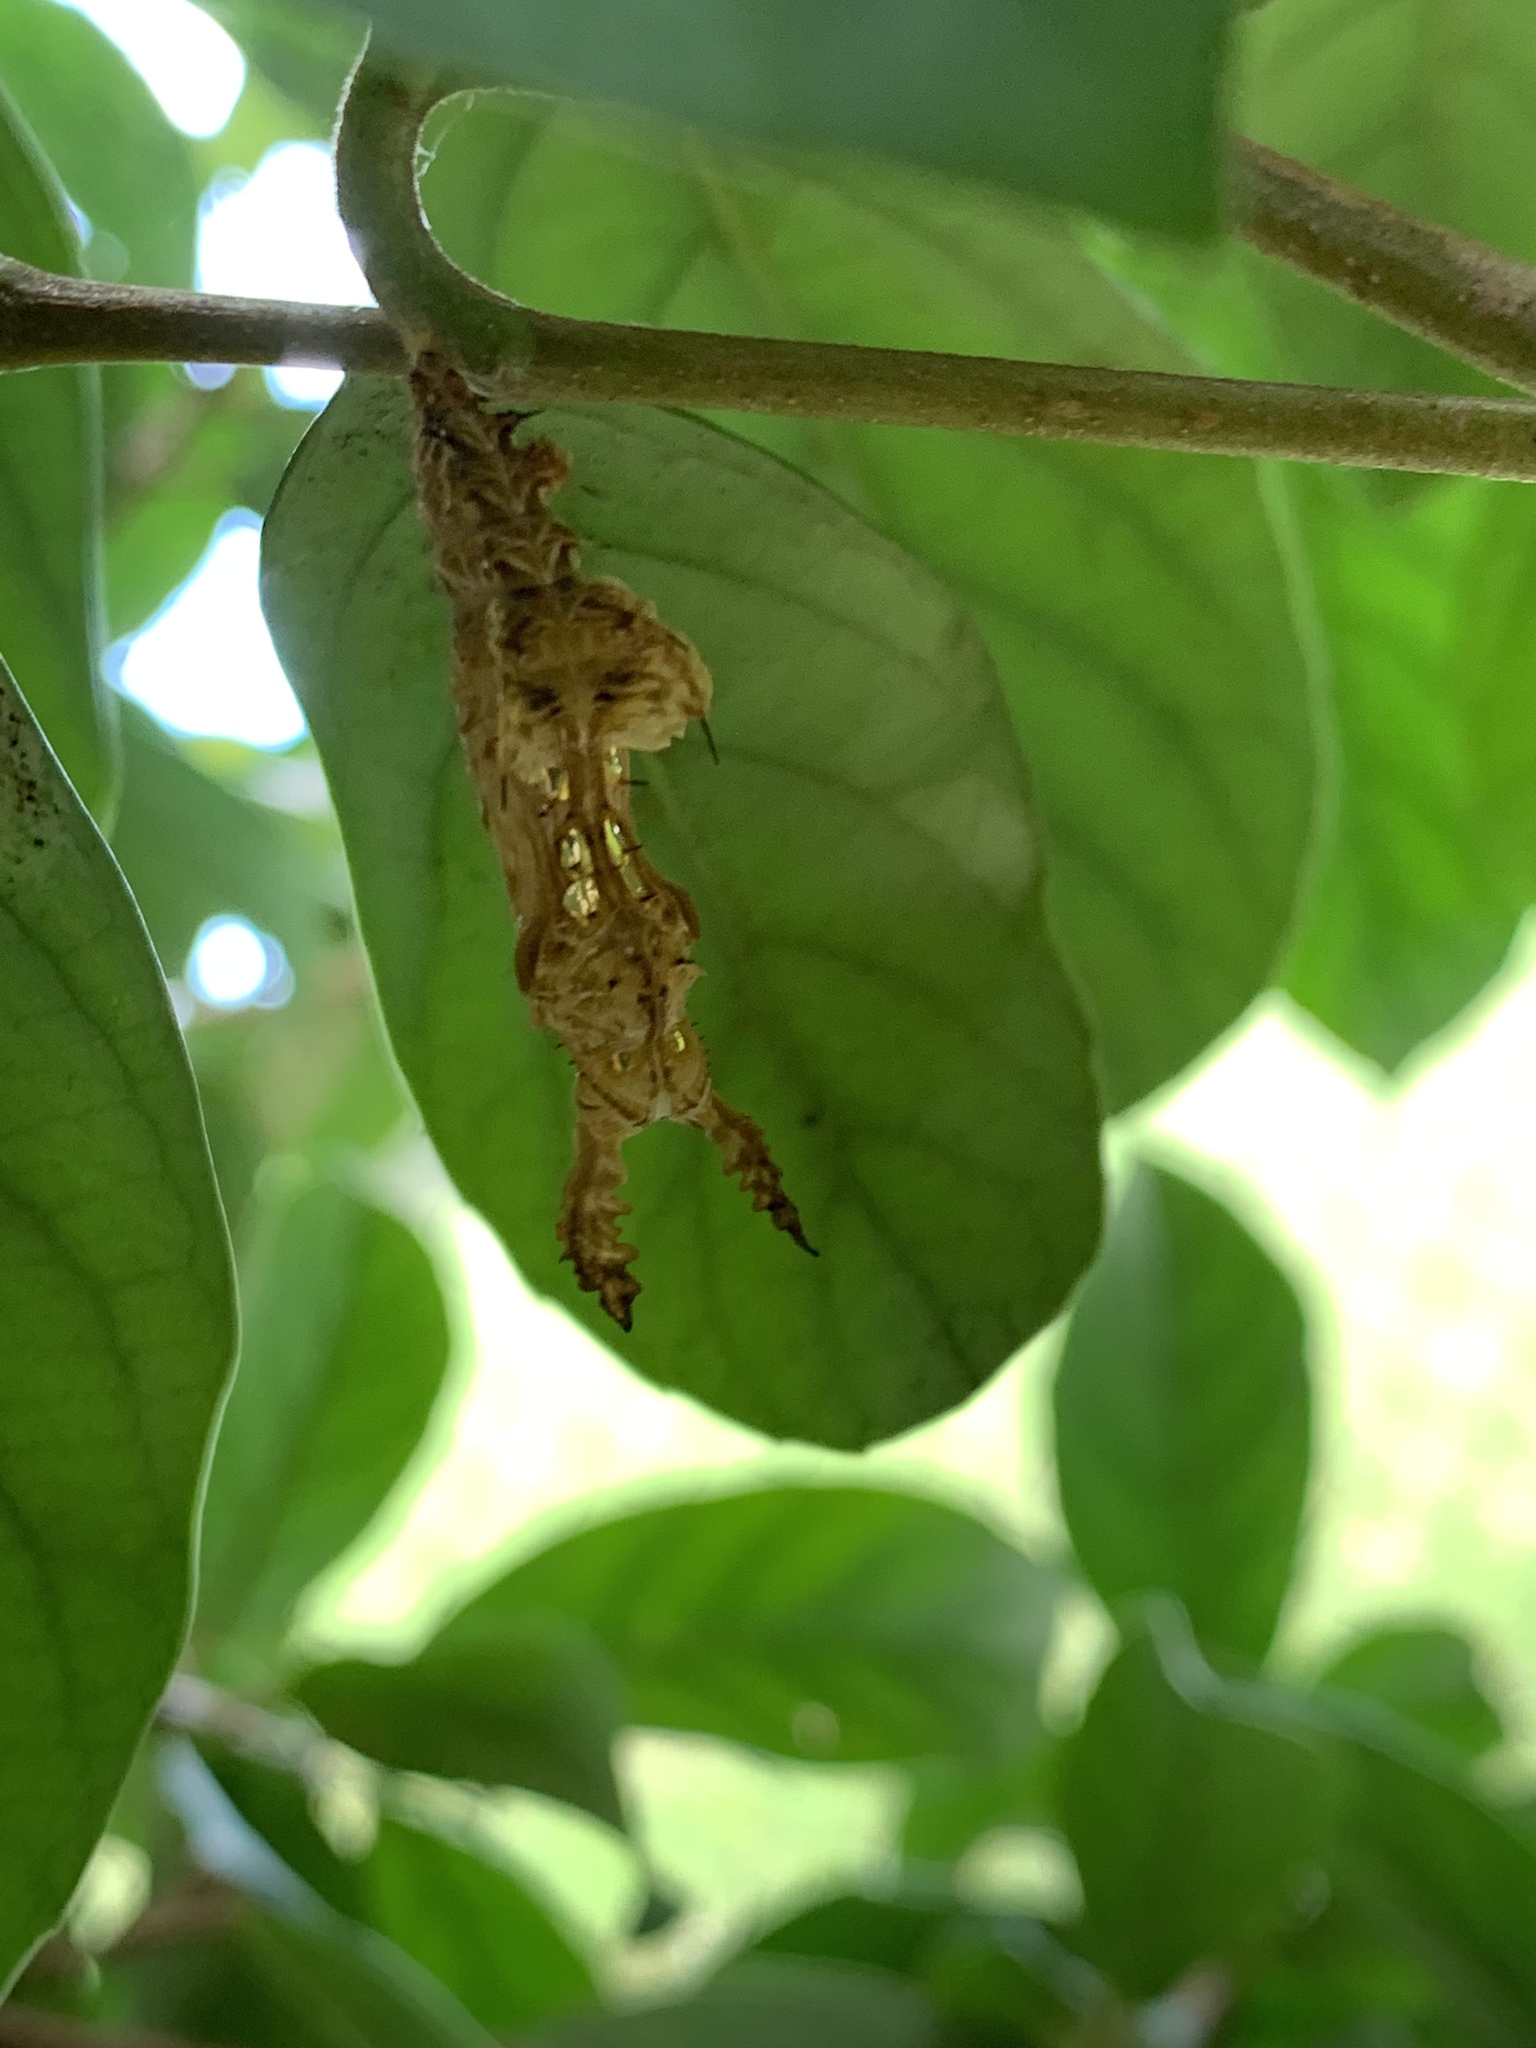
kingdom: Animalia
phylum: Arthropoda
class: Insecta
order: Lepidoptera
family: Nymphalidae
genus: Heliconius
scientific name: Heliconius charithonia
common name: Zebra long wing
